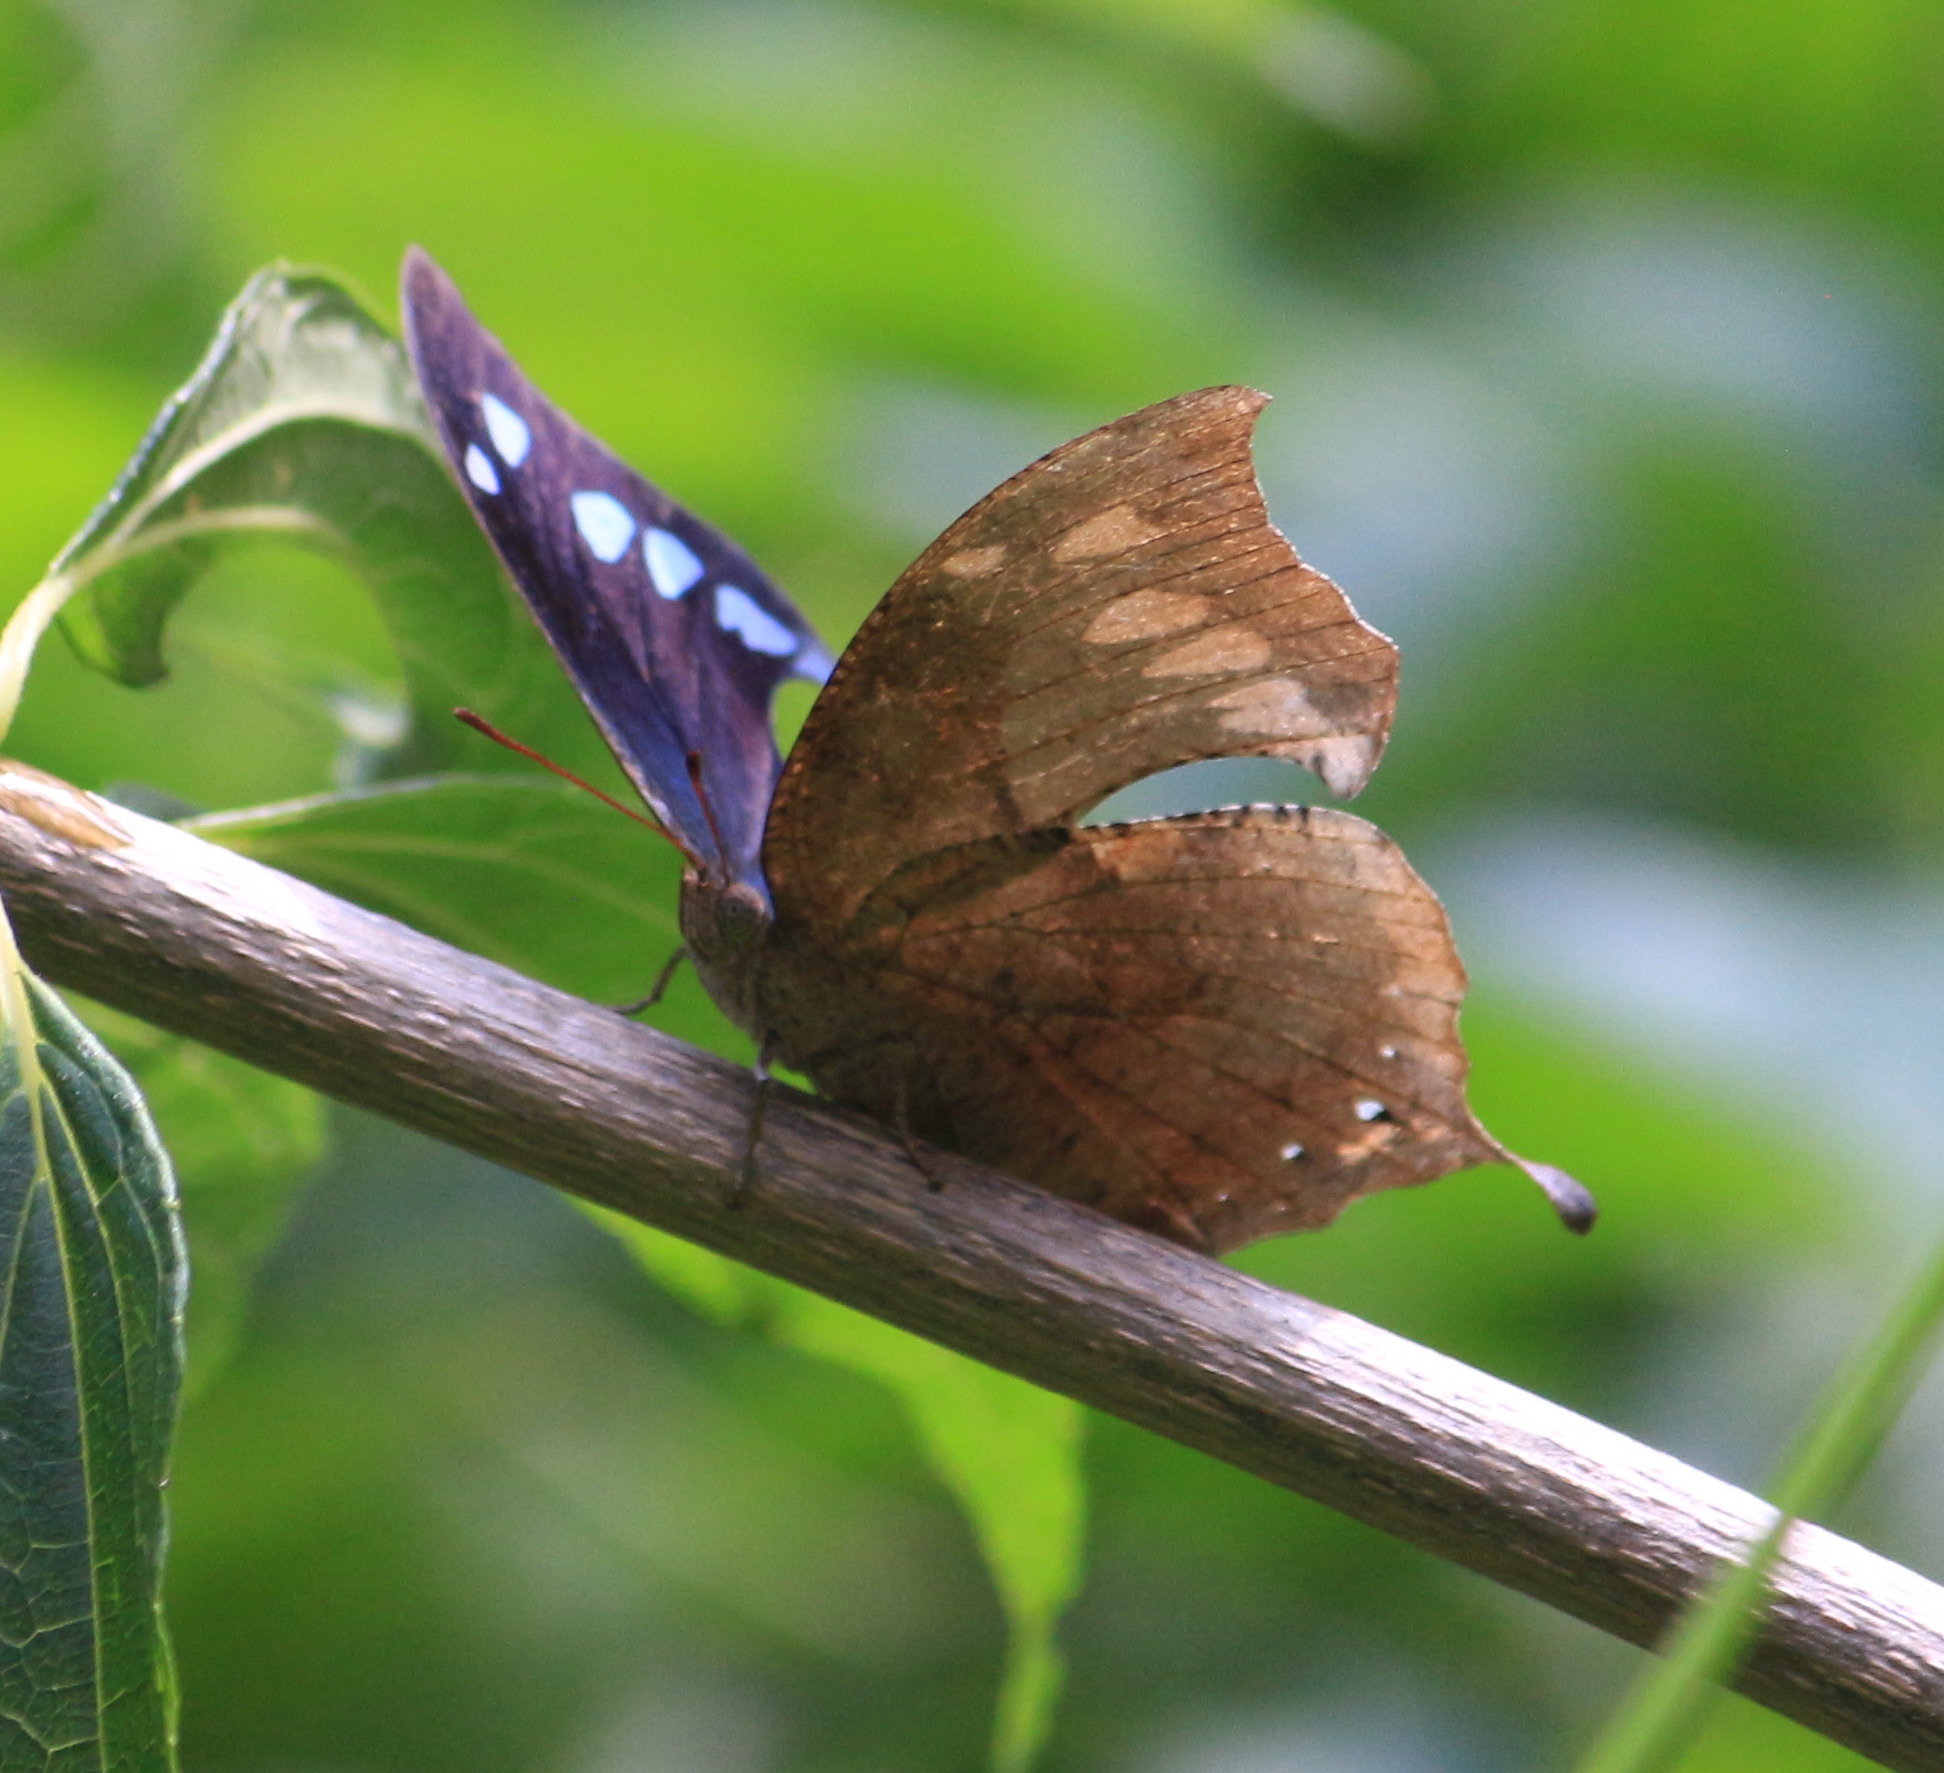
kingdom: Animalia
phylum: Arthropoda
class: Insecta
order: Lepidoptera
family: Nymphalidae
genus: Memphis
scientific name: Memphis perenna
